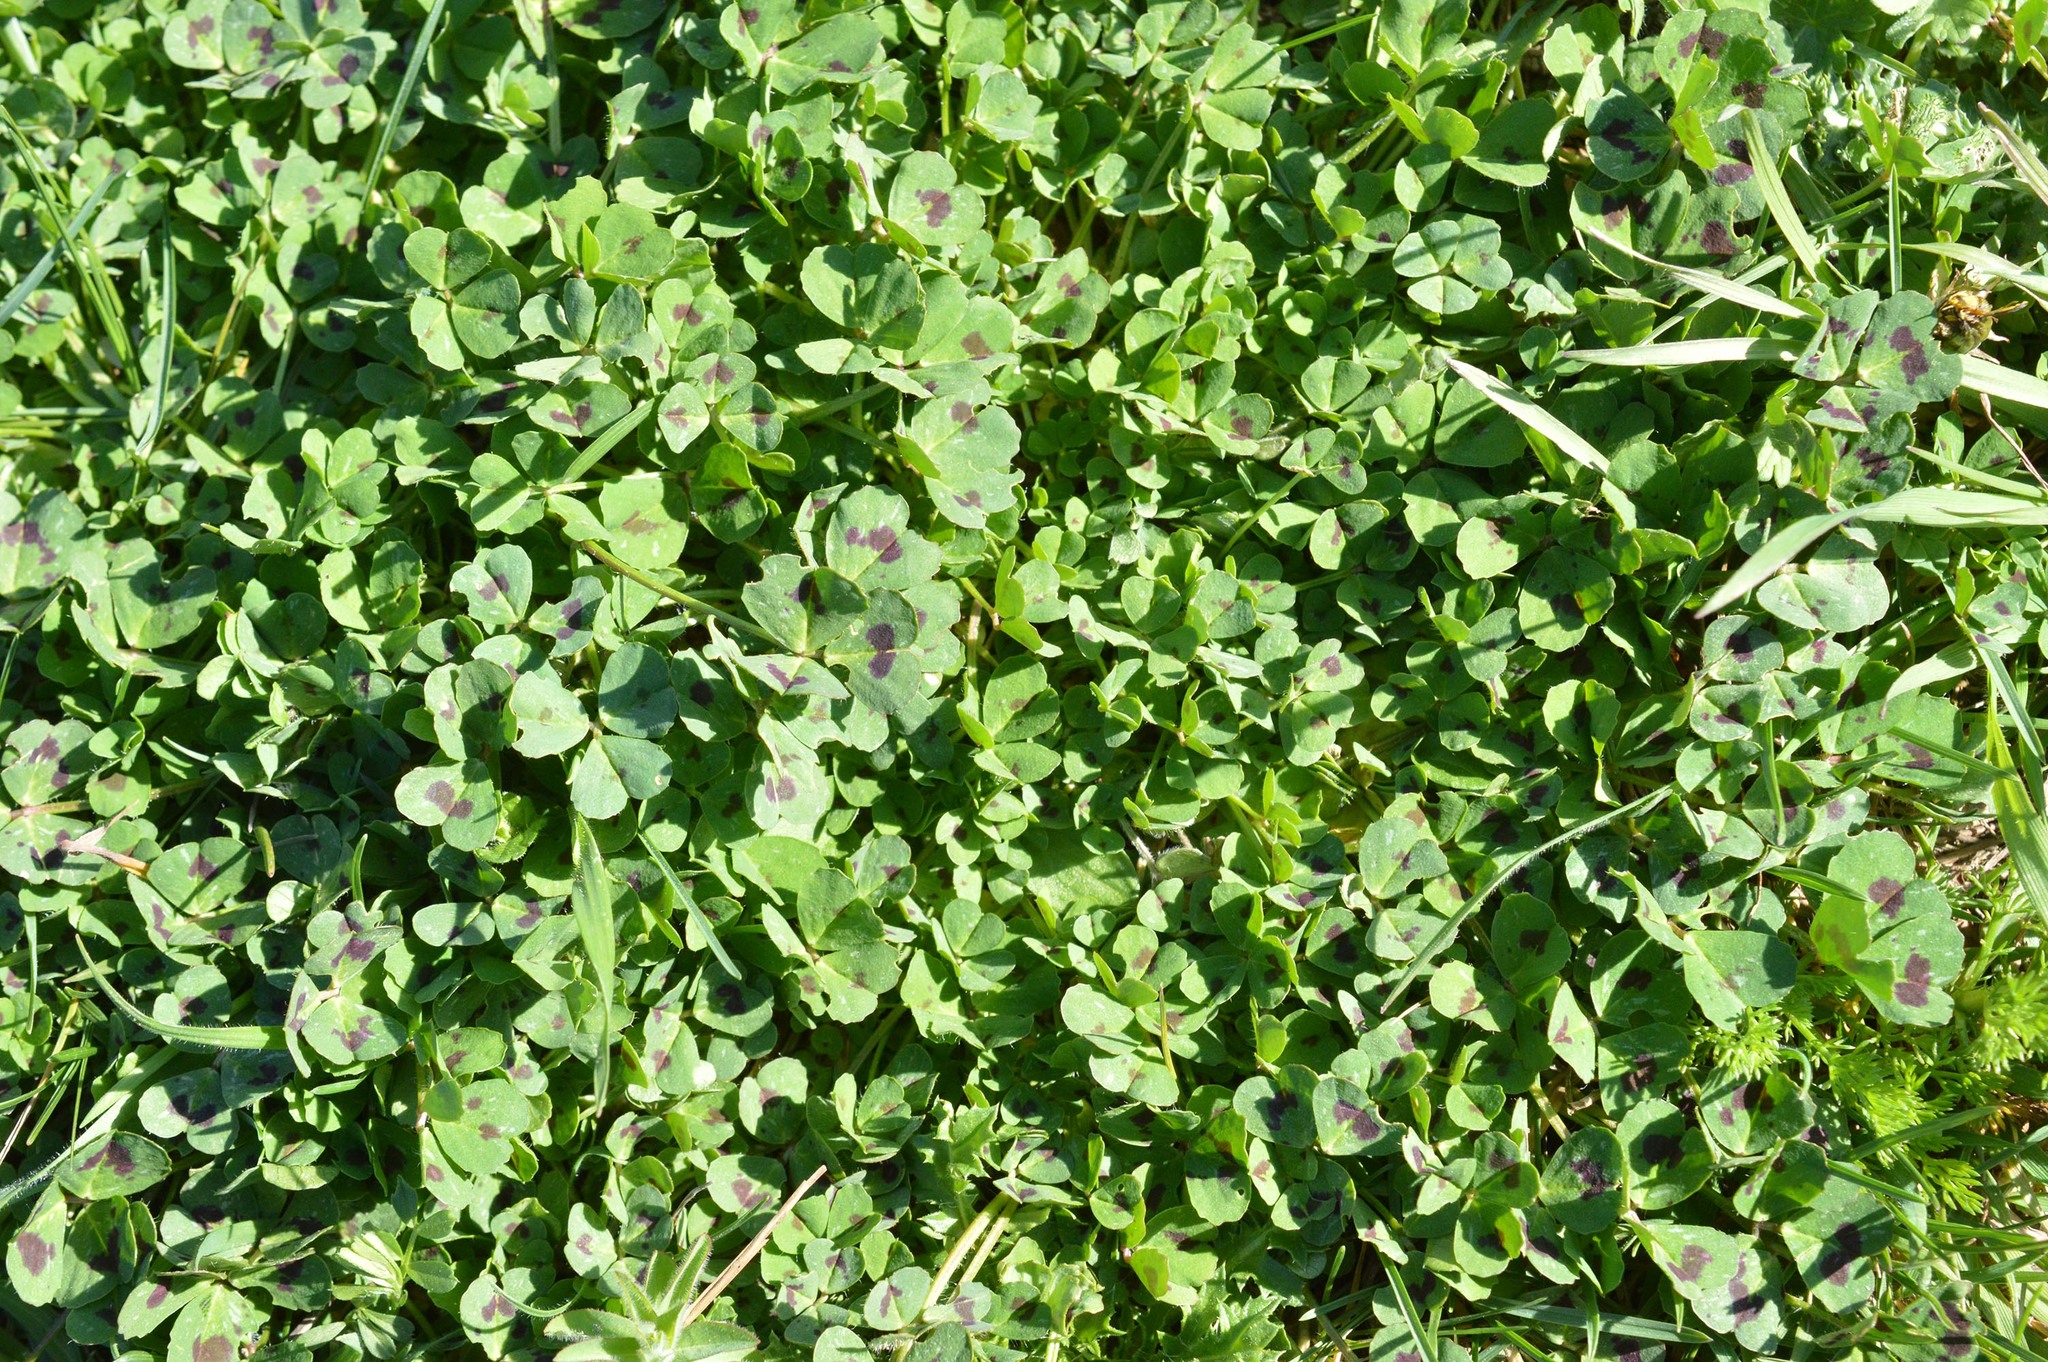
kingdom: Plantae
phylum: Tracheophyta
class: Magnoliopsida
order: Fabales
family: Fabaceae
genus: Medicago
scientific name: Medicago arabica
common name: Spotted medick
